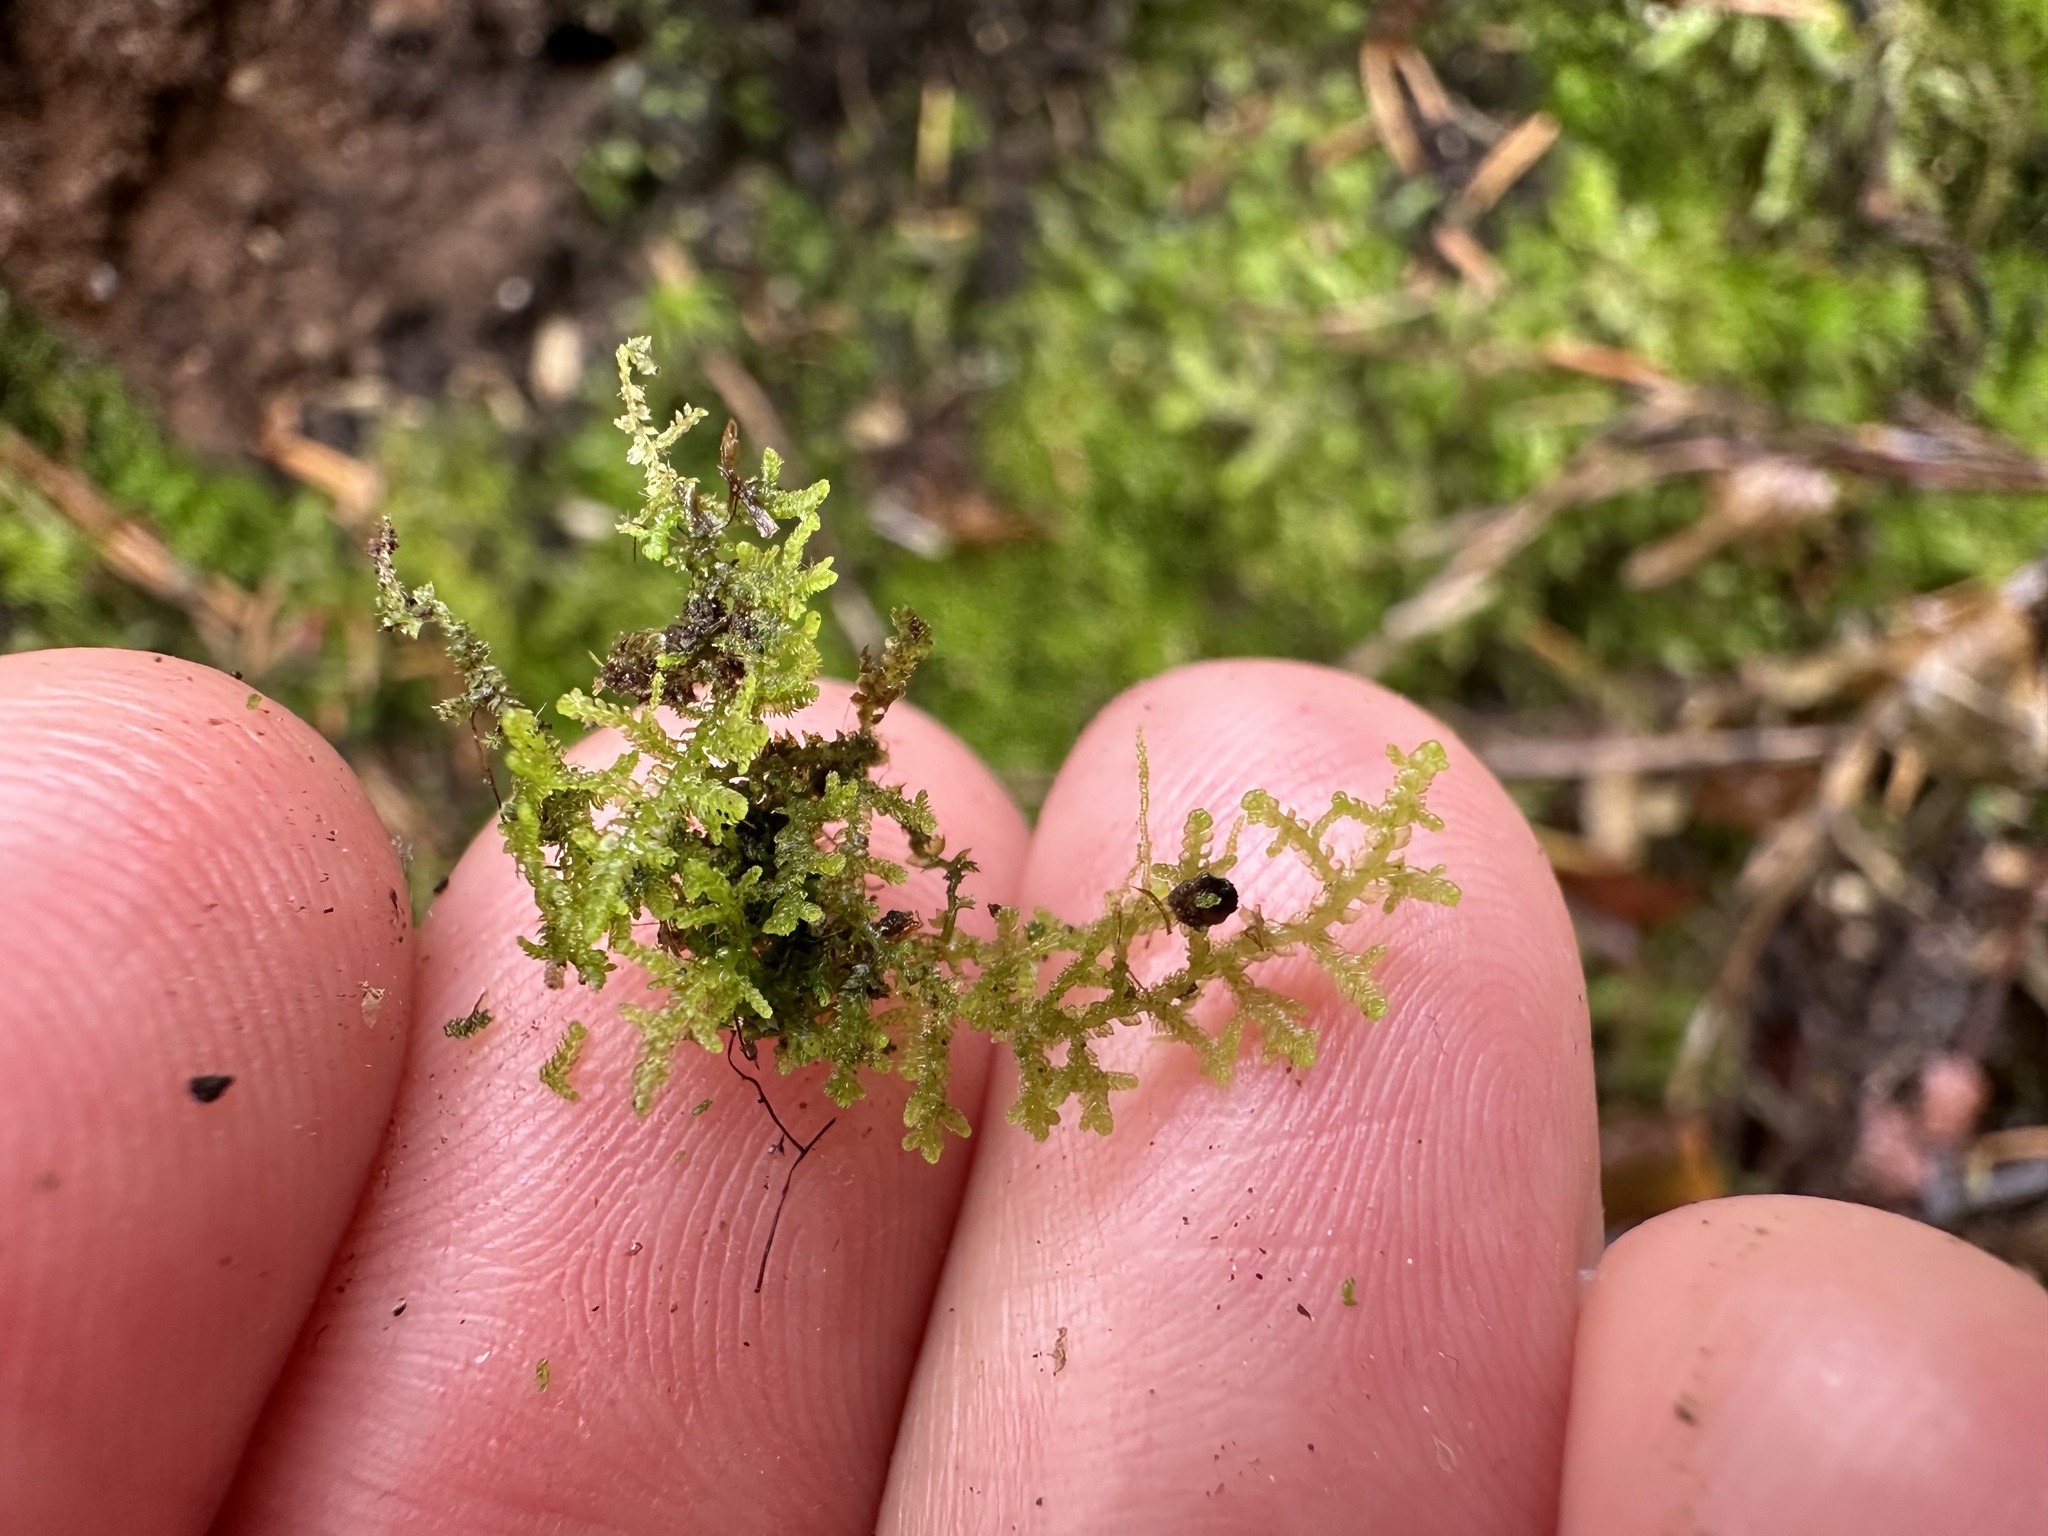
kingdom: Plantae
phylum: Marchantiophyta
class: Jungermanniopsida
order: Jungermanniales
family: Lepidoziaceae
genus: Lepidozia
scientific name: Lepidozia reptans
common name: Creeping fingerwort
